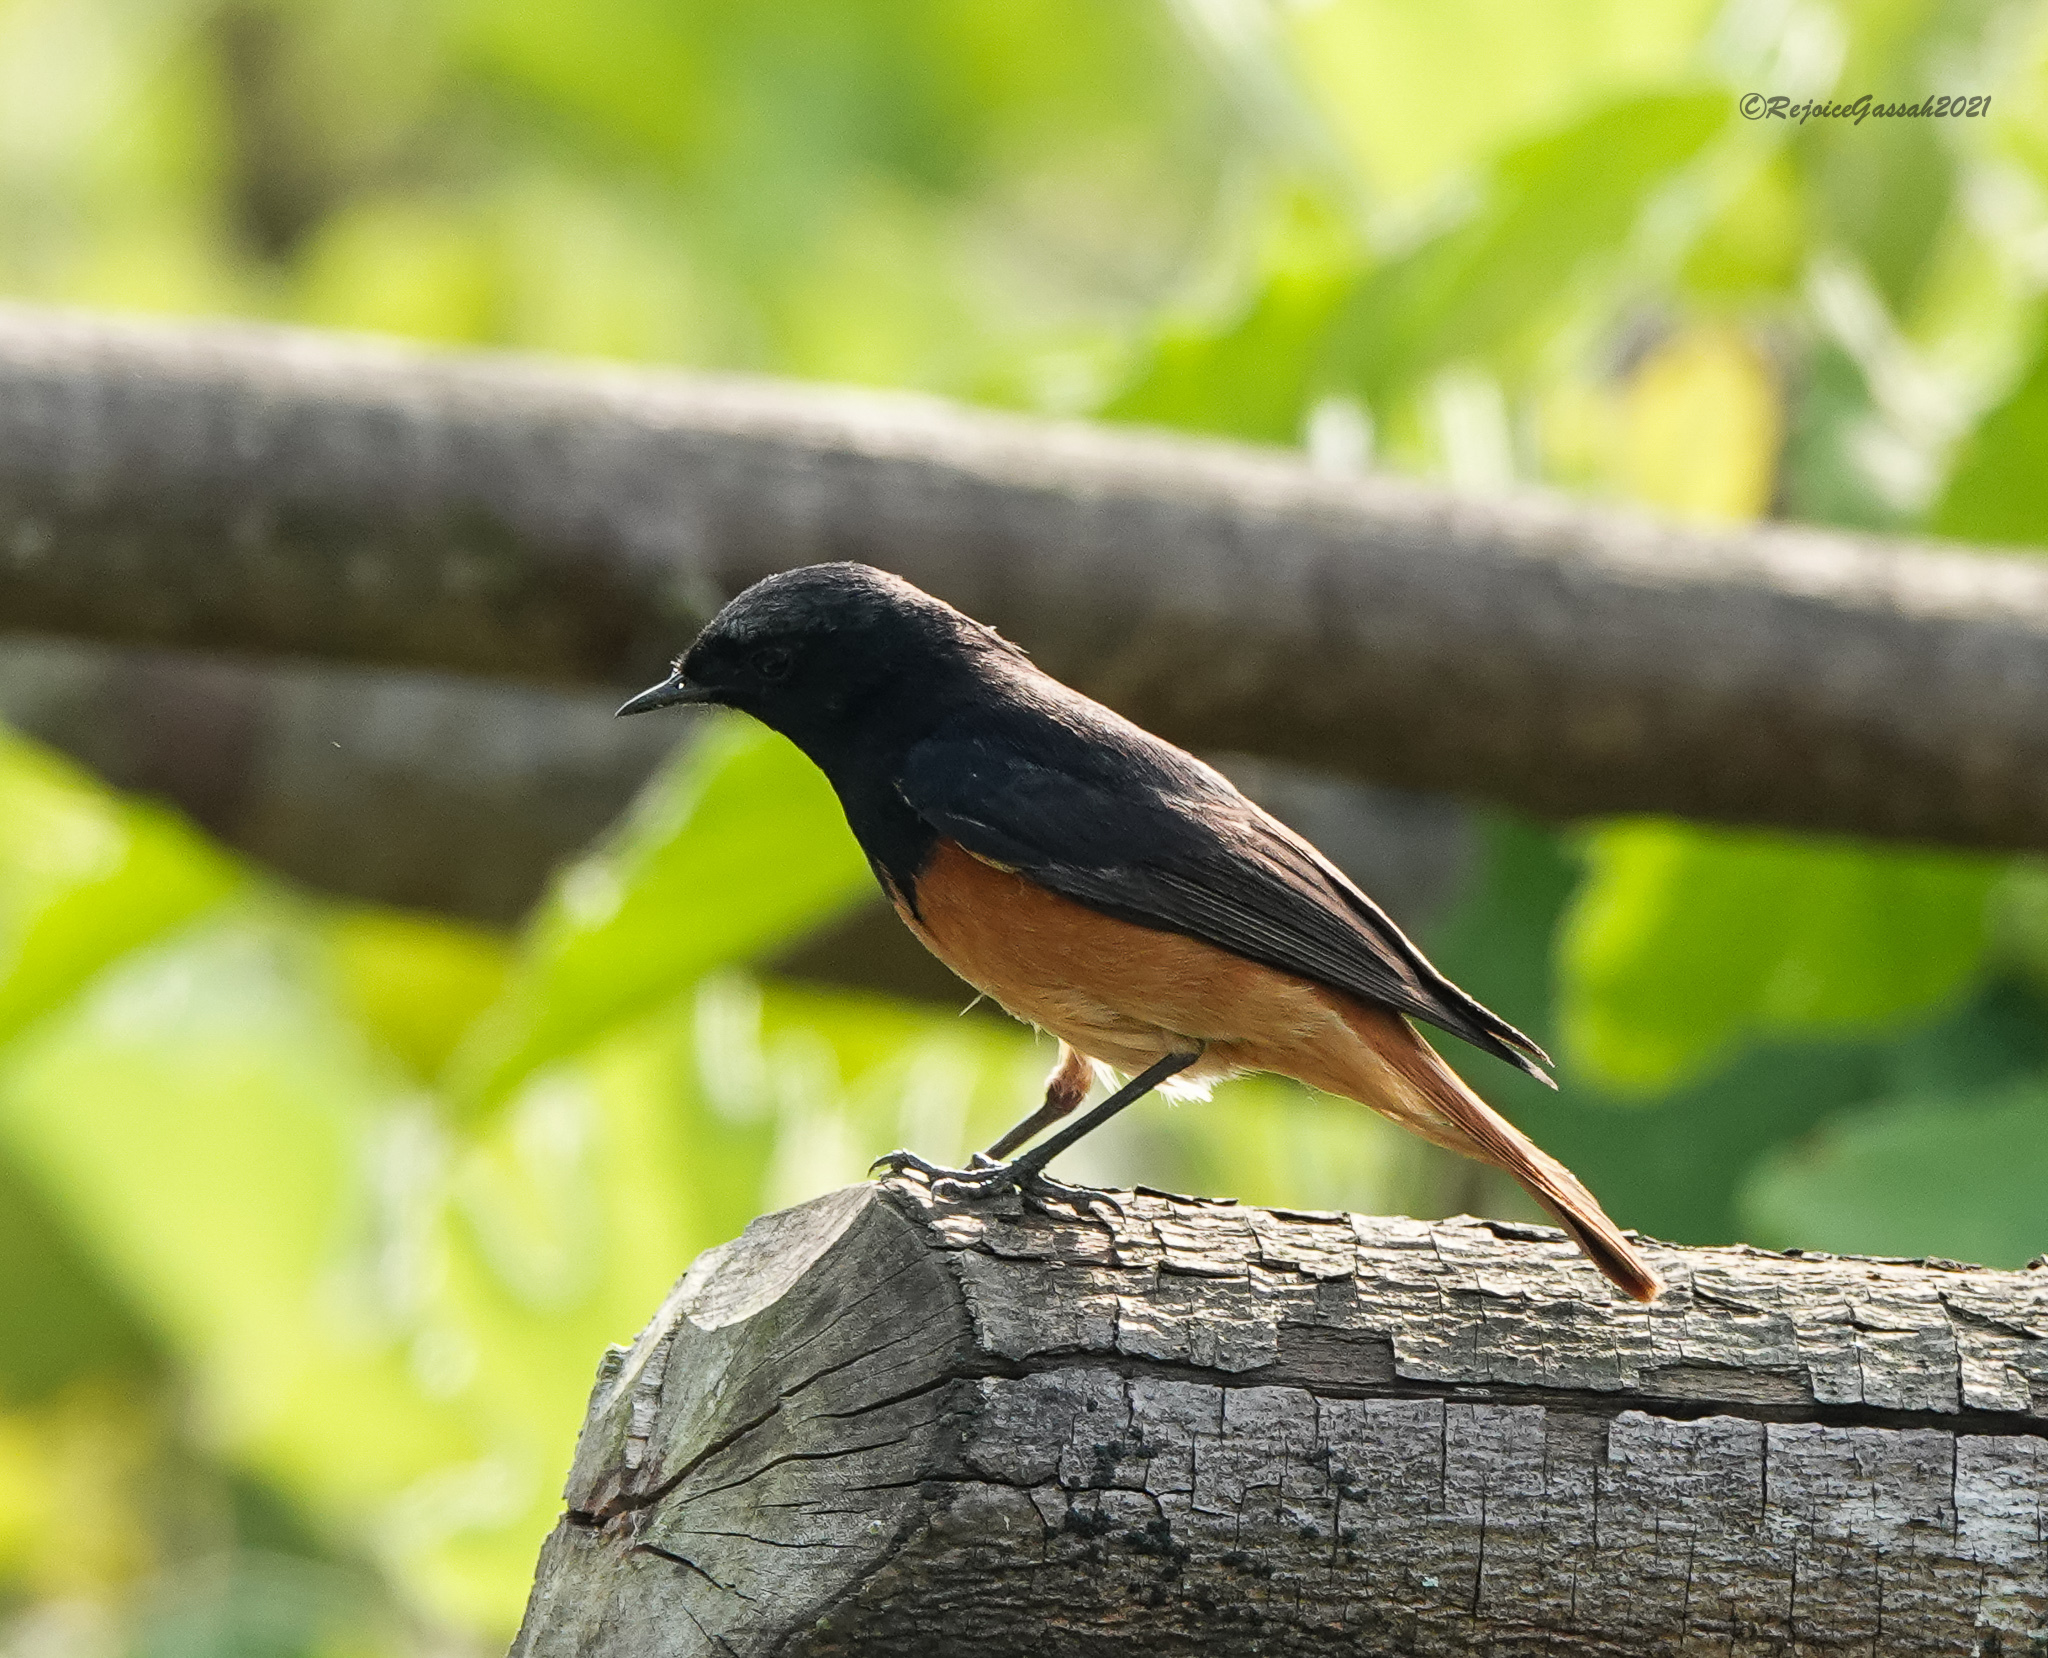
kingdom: Animalia
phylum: Chordata
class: Aves
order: Passeriformes
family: Muscicapidae
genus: Phoenicurus
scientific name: Phoenicurus ochruros
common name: Black redstart
